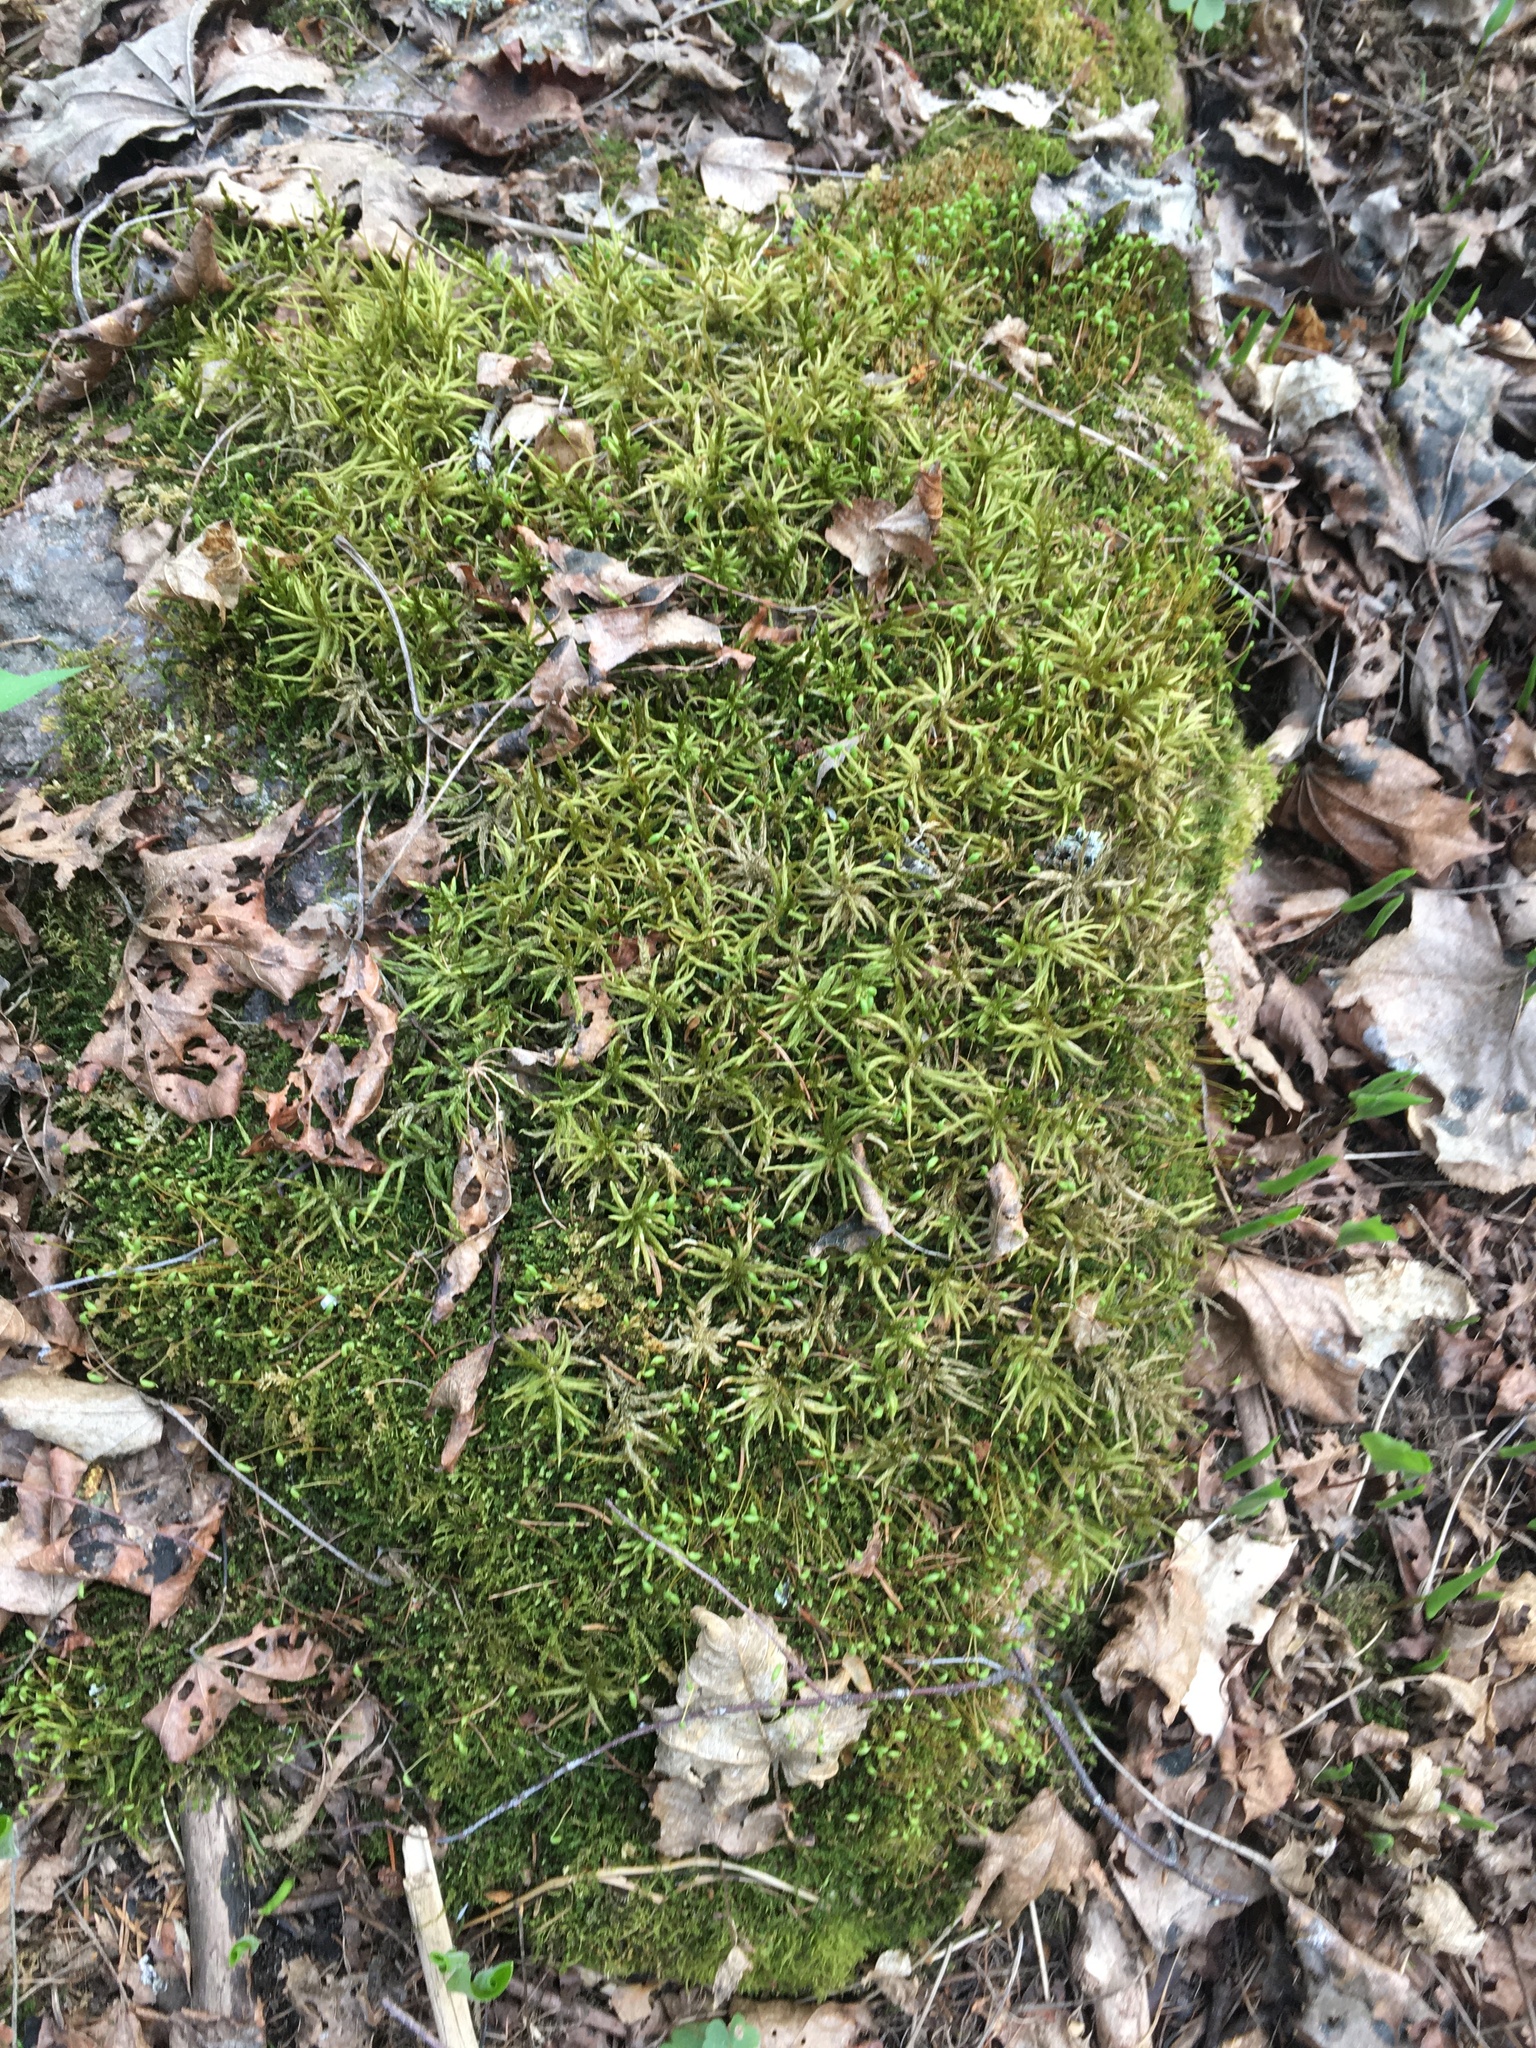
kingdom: Plantae
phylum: Bryophyta
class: Bryopsida
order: Hypnales
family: Climaciaceae
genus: Climacium
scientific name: Climacium dendroides
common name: Northern tree moss
